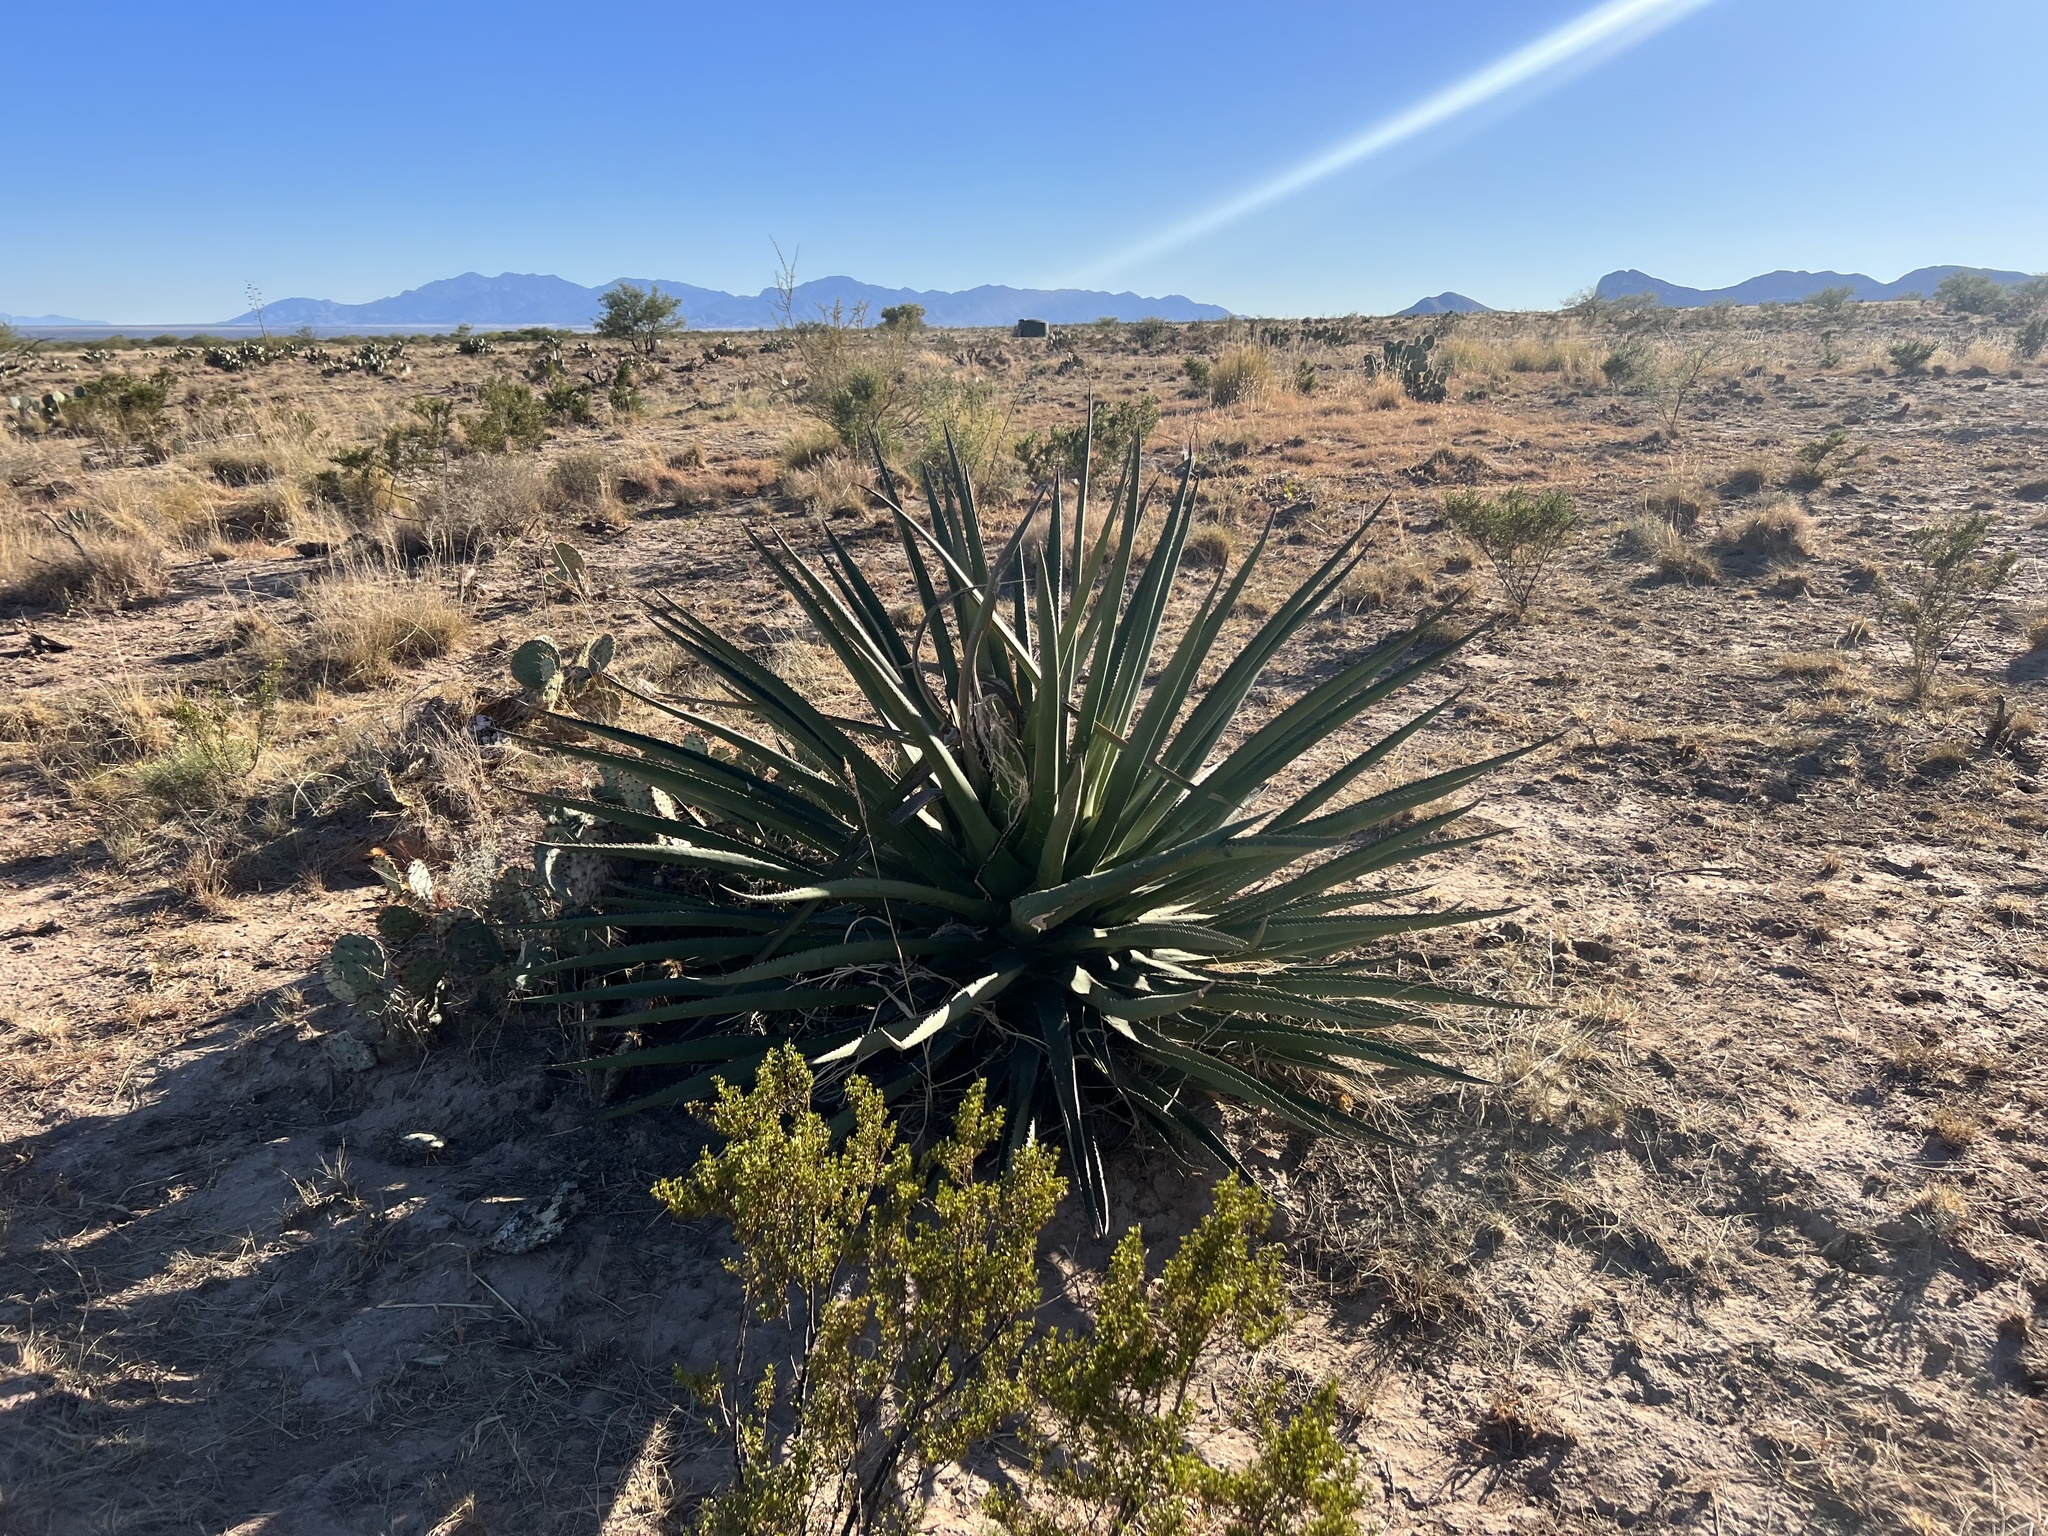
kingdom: Plantae
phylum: Tracheophyta
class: Liliopsida
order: Asparagales
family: Asparagaceae
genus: Agave
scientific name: Agave palmeri
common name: Palmer agave
